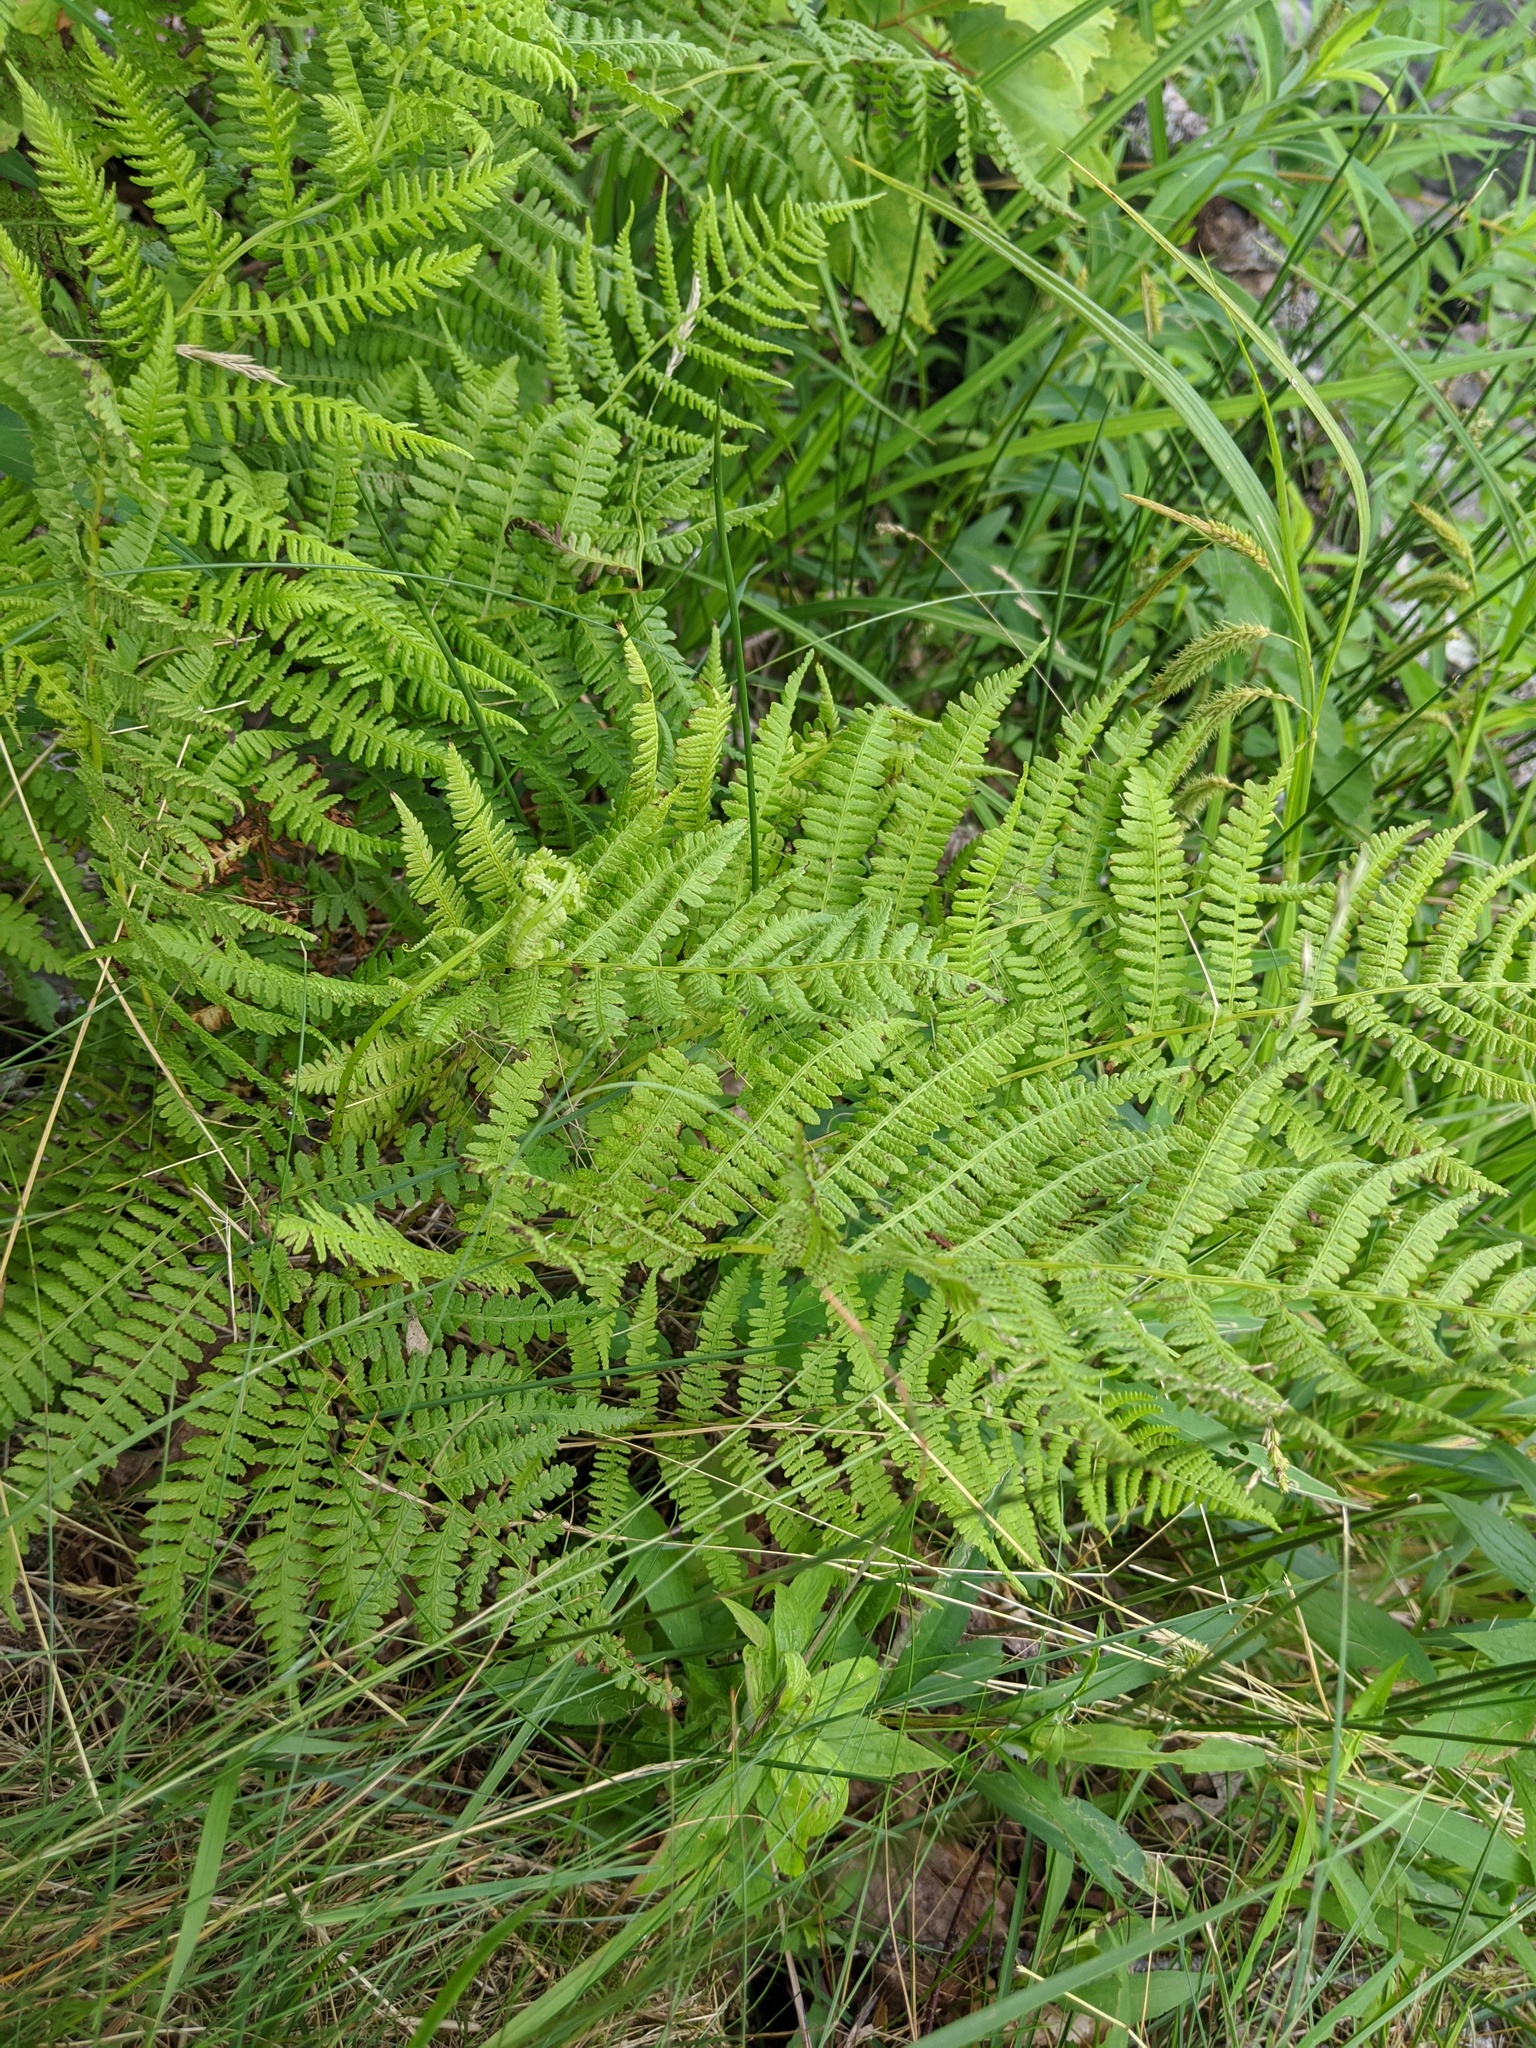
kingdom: Plantae
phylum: Tracheophyta
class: Polypodiopsida
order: Polypodiales
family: Athyriaceae
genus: Athyrium
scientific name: Athyrium angustum
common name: Northern lady fern
